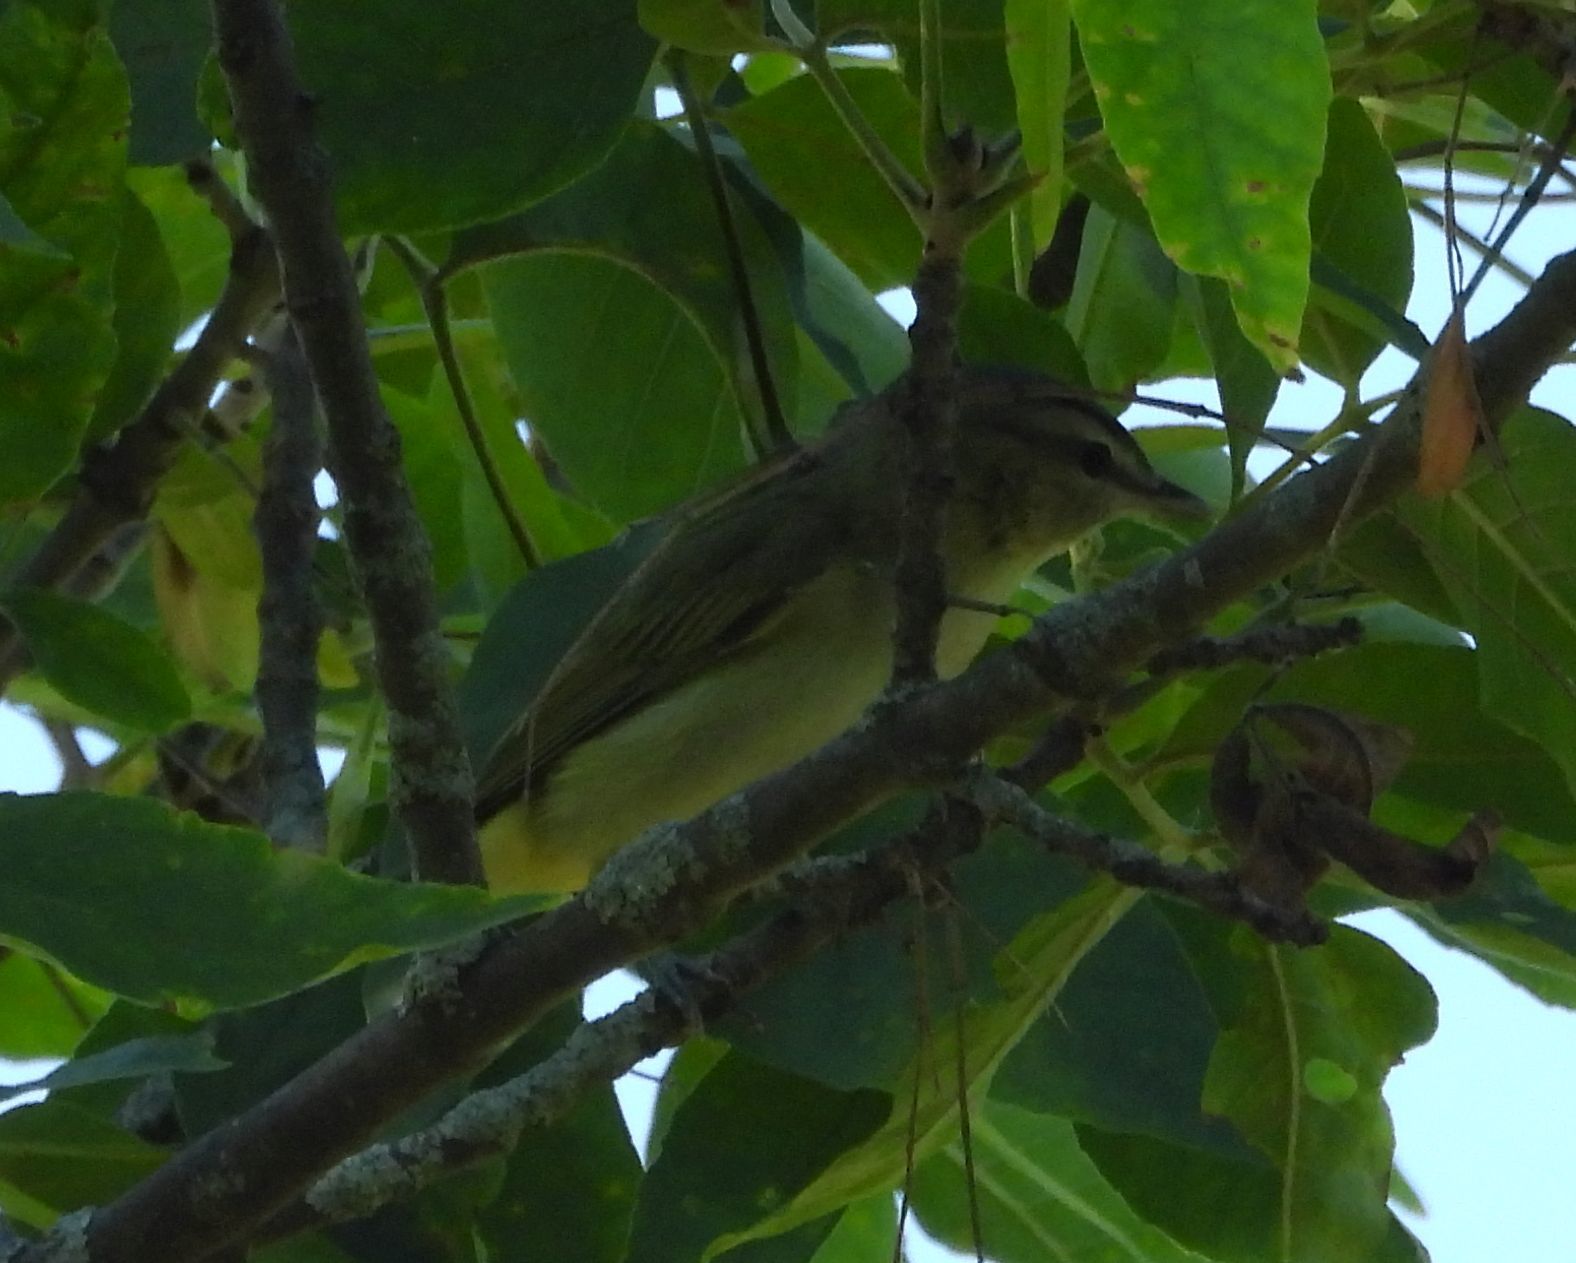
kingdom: Animalia
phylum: Chordata
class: Aves
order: Passeriformes
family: Vireonidae
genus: Vireo
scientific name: Vireo olivaceus
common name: Red-eyed vireo
